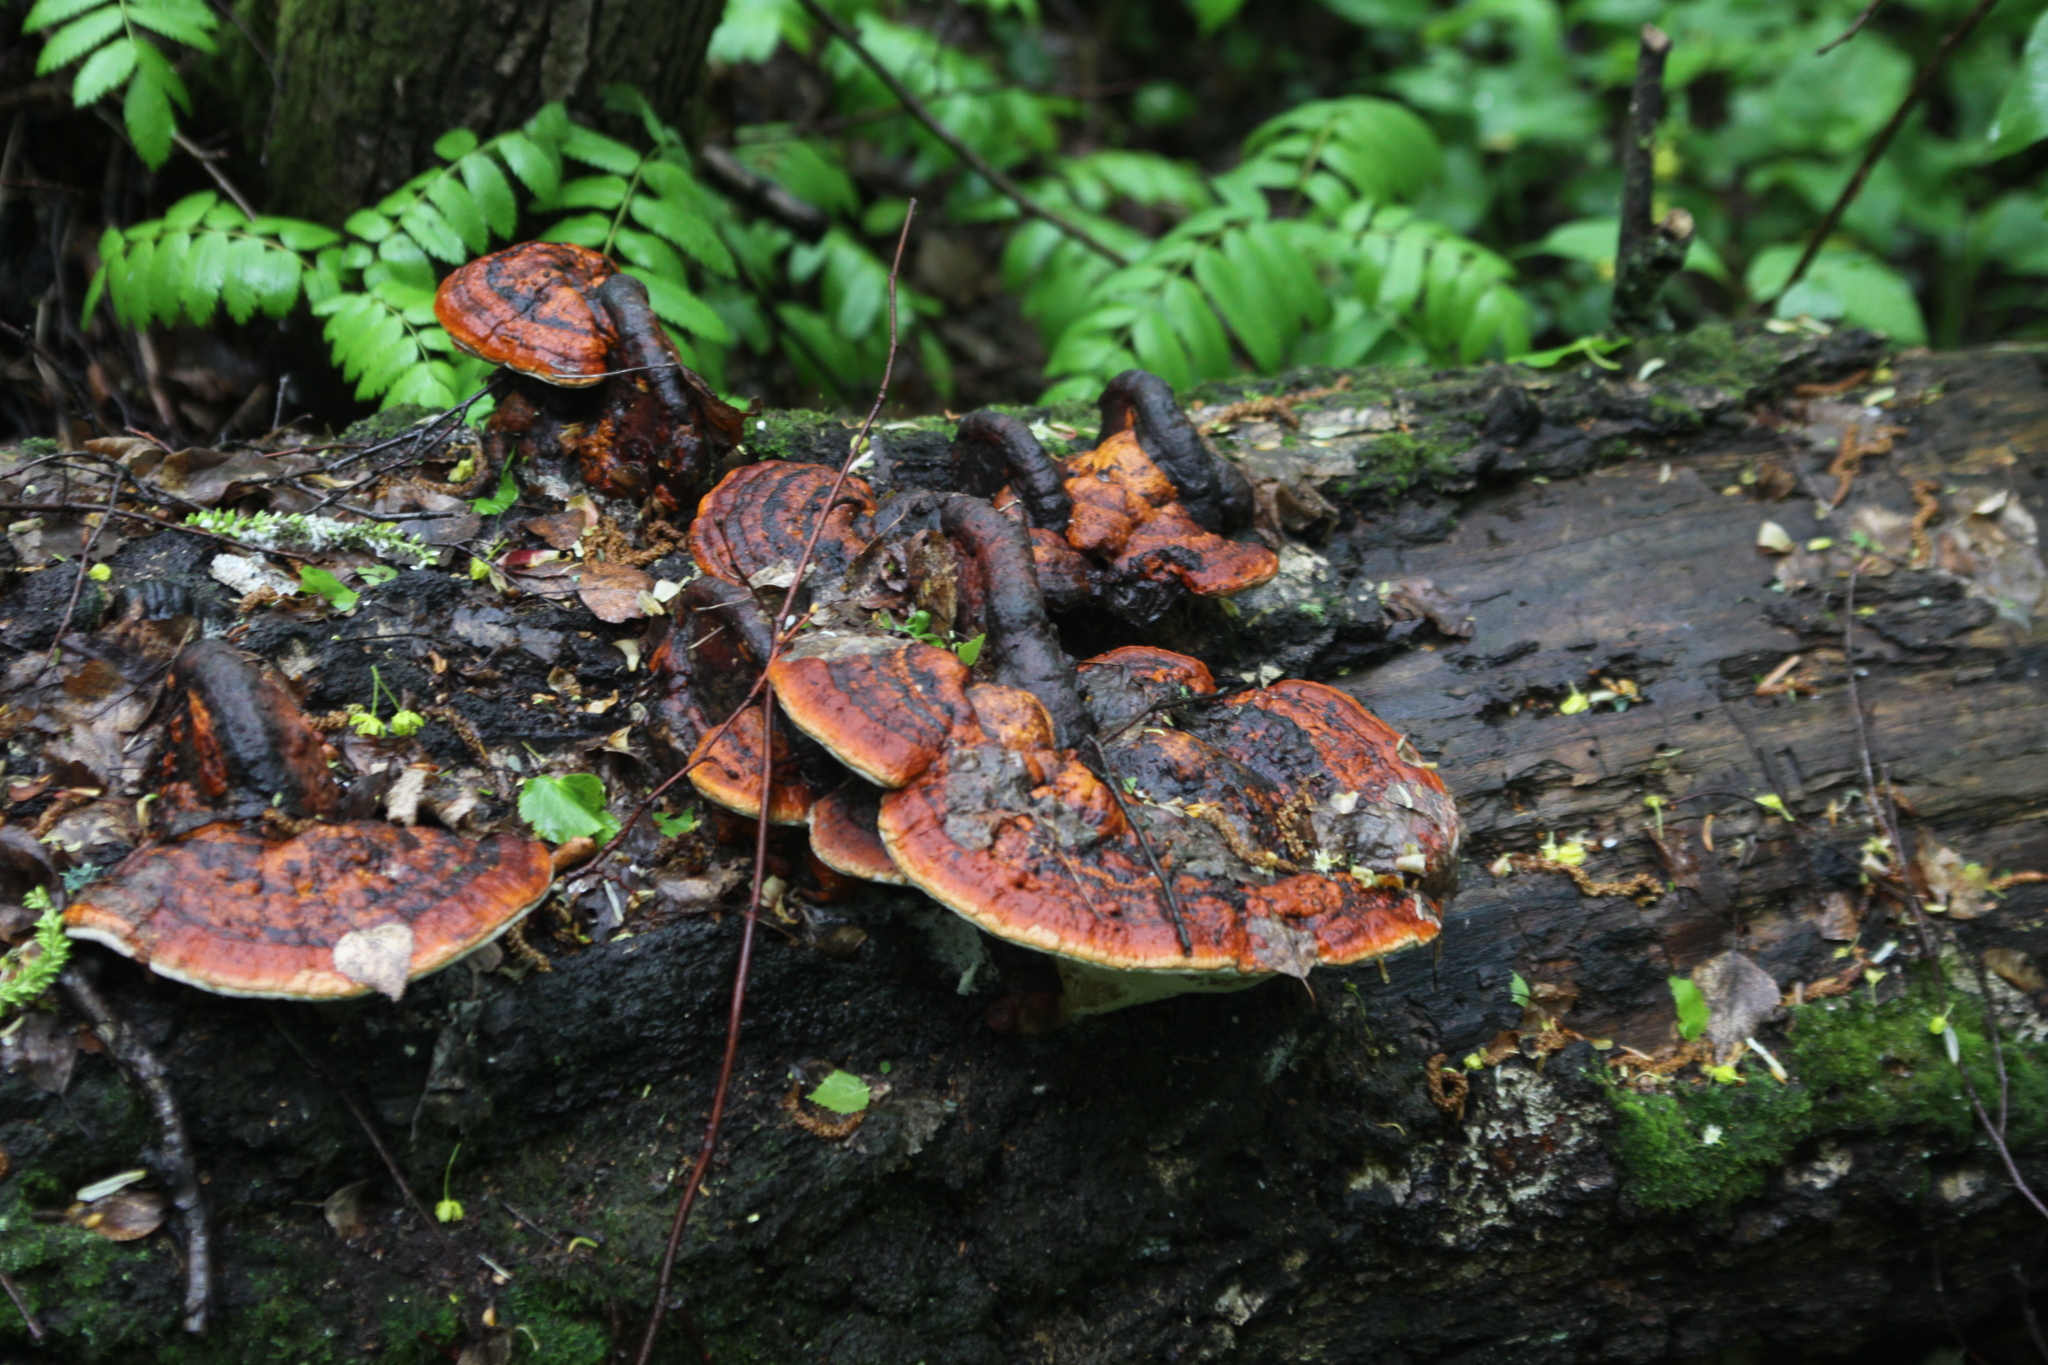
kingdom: Fungi
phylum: Basidiomycota
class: Agaricomycetes
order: Polyporales
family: Fomitopsidaceae
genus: Fomitopsis
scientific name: Fomitopsis pinicola
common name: Red-belted bracket
